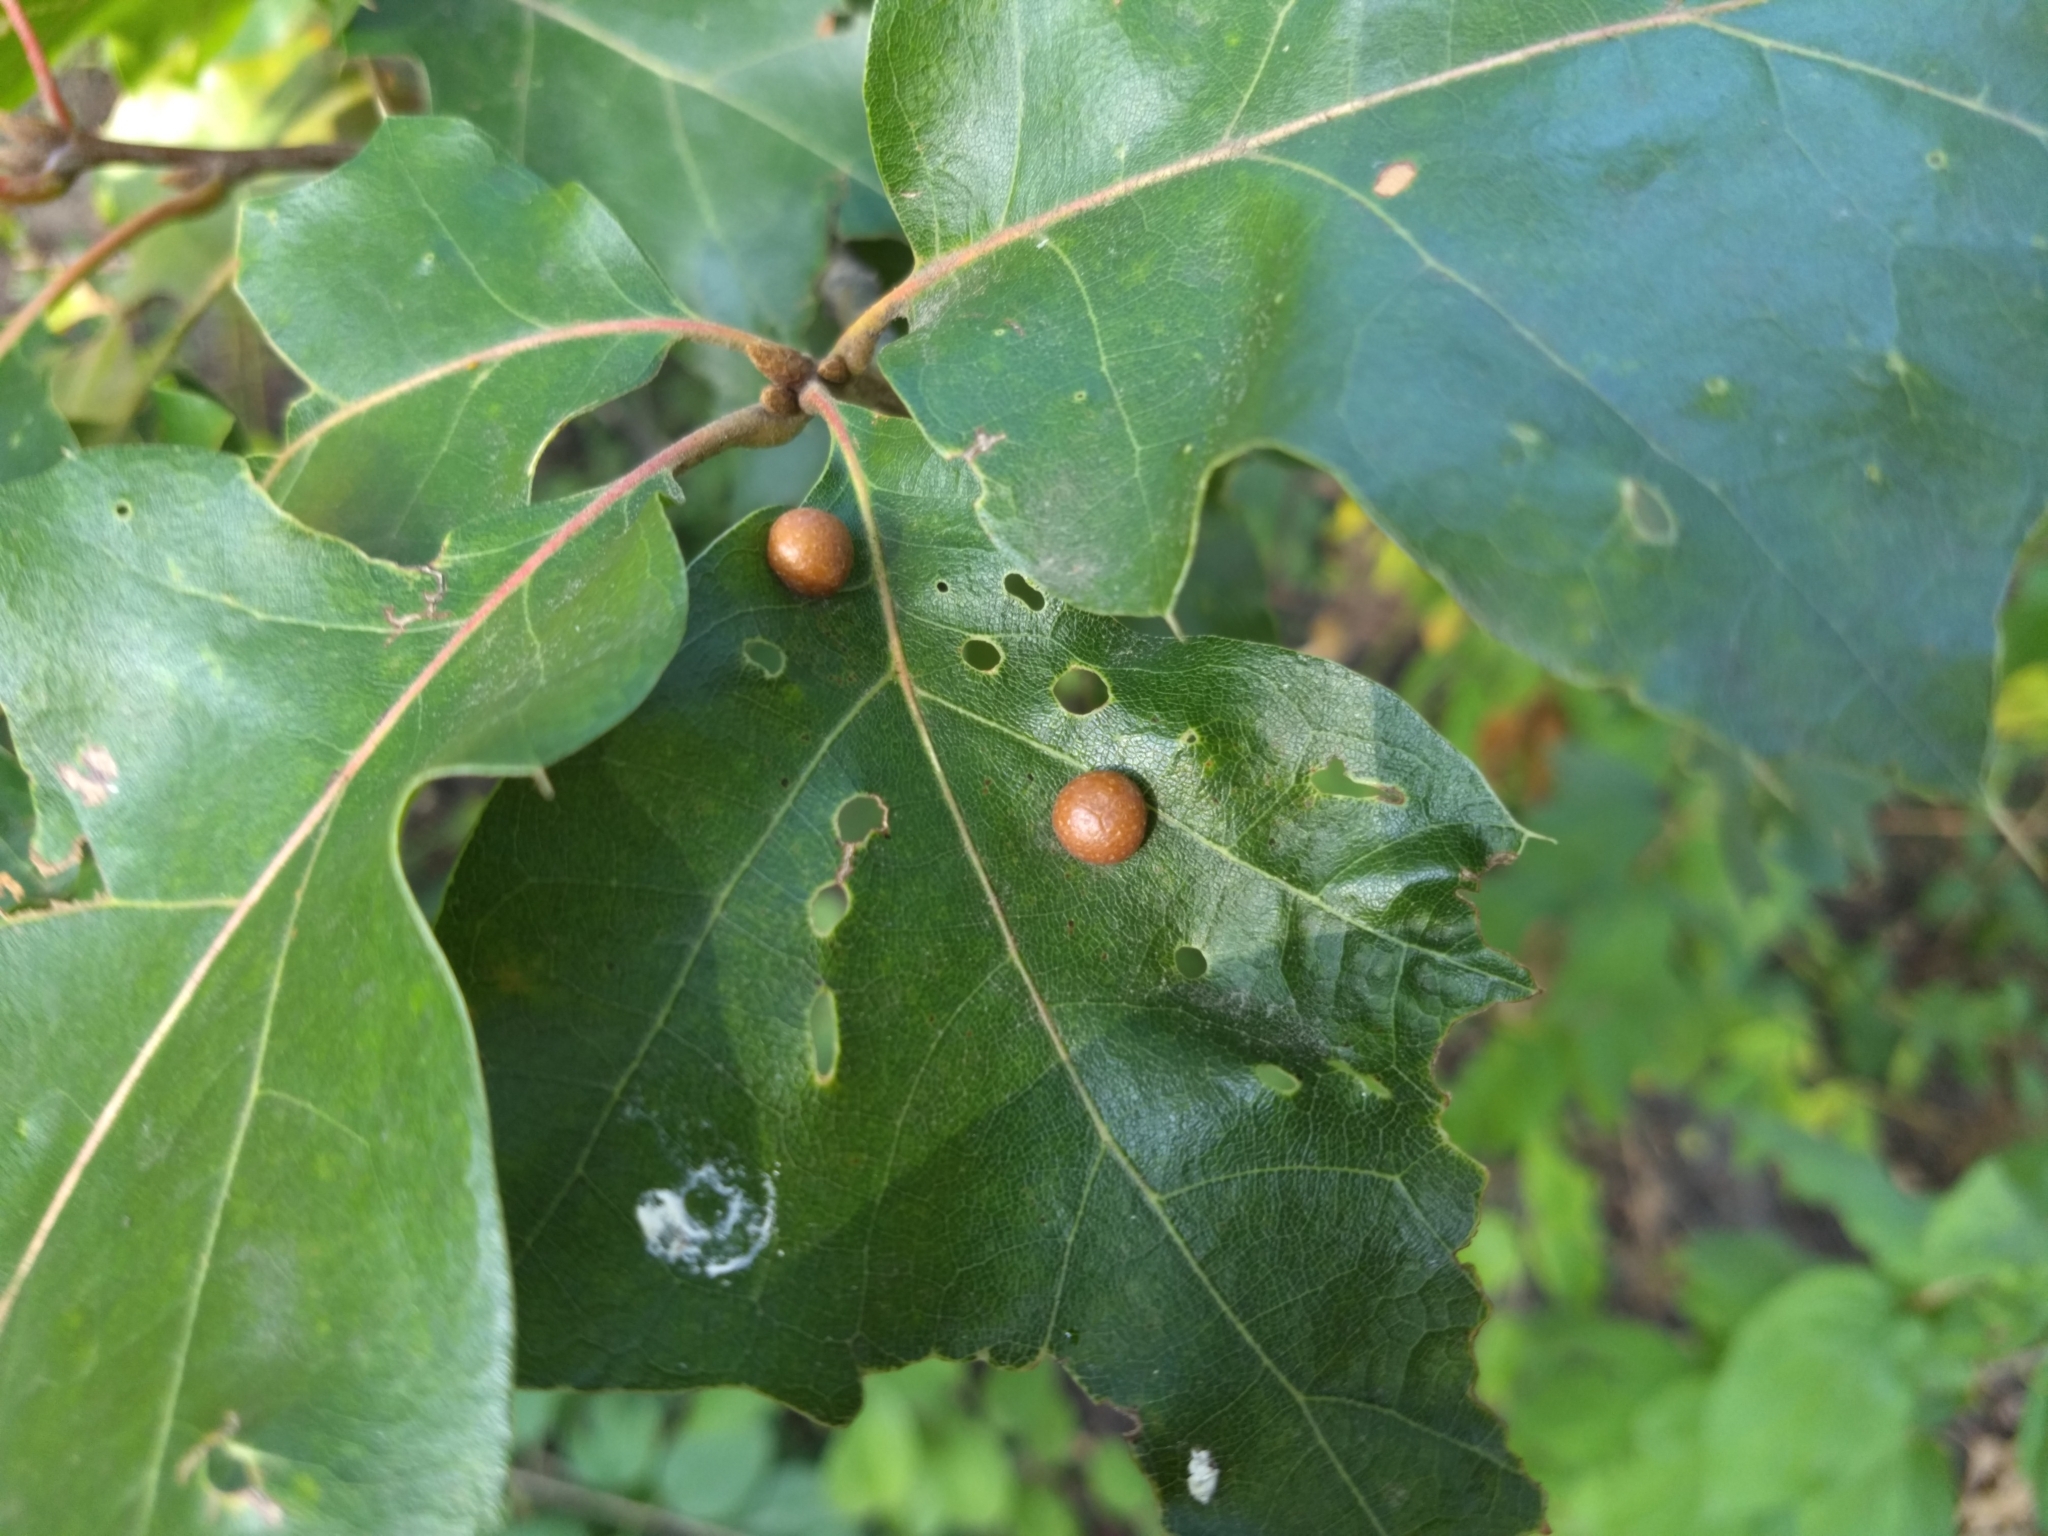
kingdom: Animalia
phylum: Arthropoda
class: Insecta
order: Diptera
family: Cecidomyiidae
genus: Polystepha
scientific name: Polystepha pilulae
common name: Oak leaf gall midge
